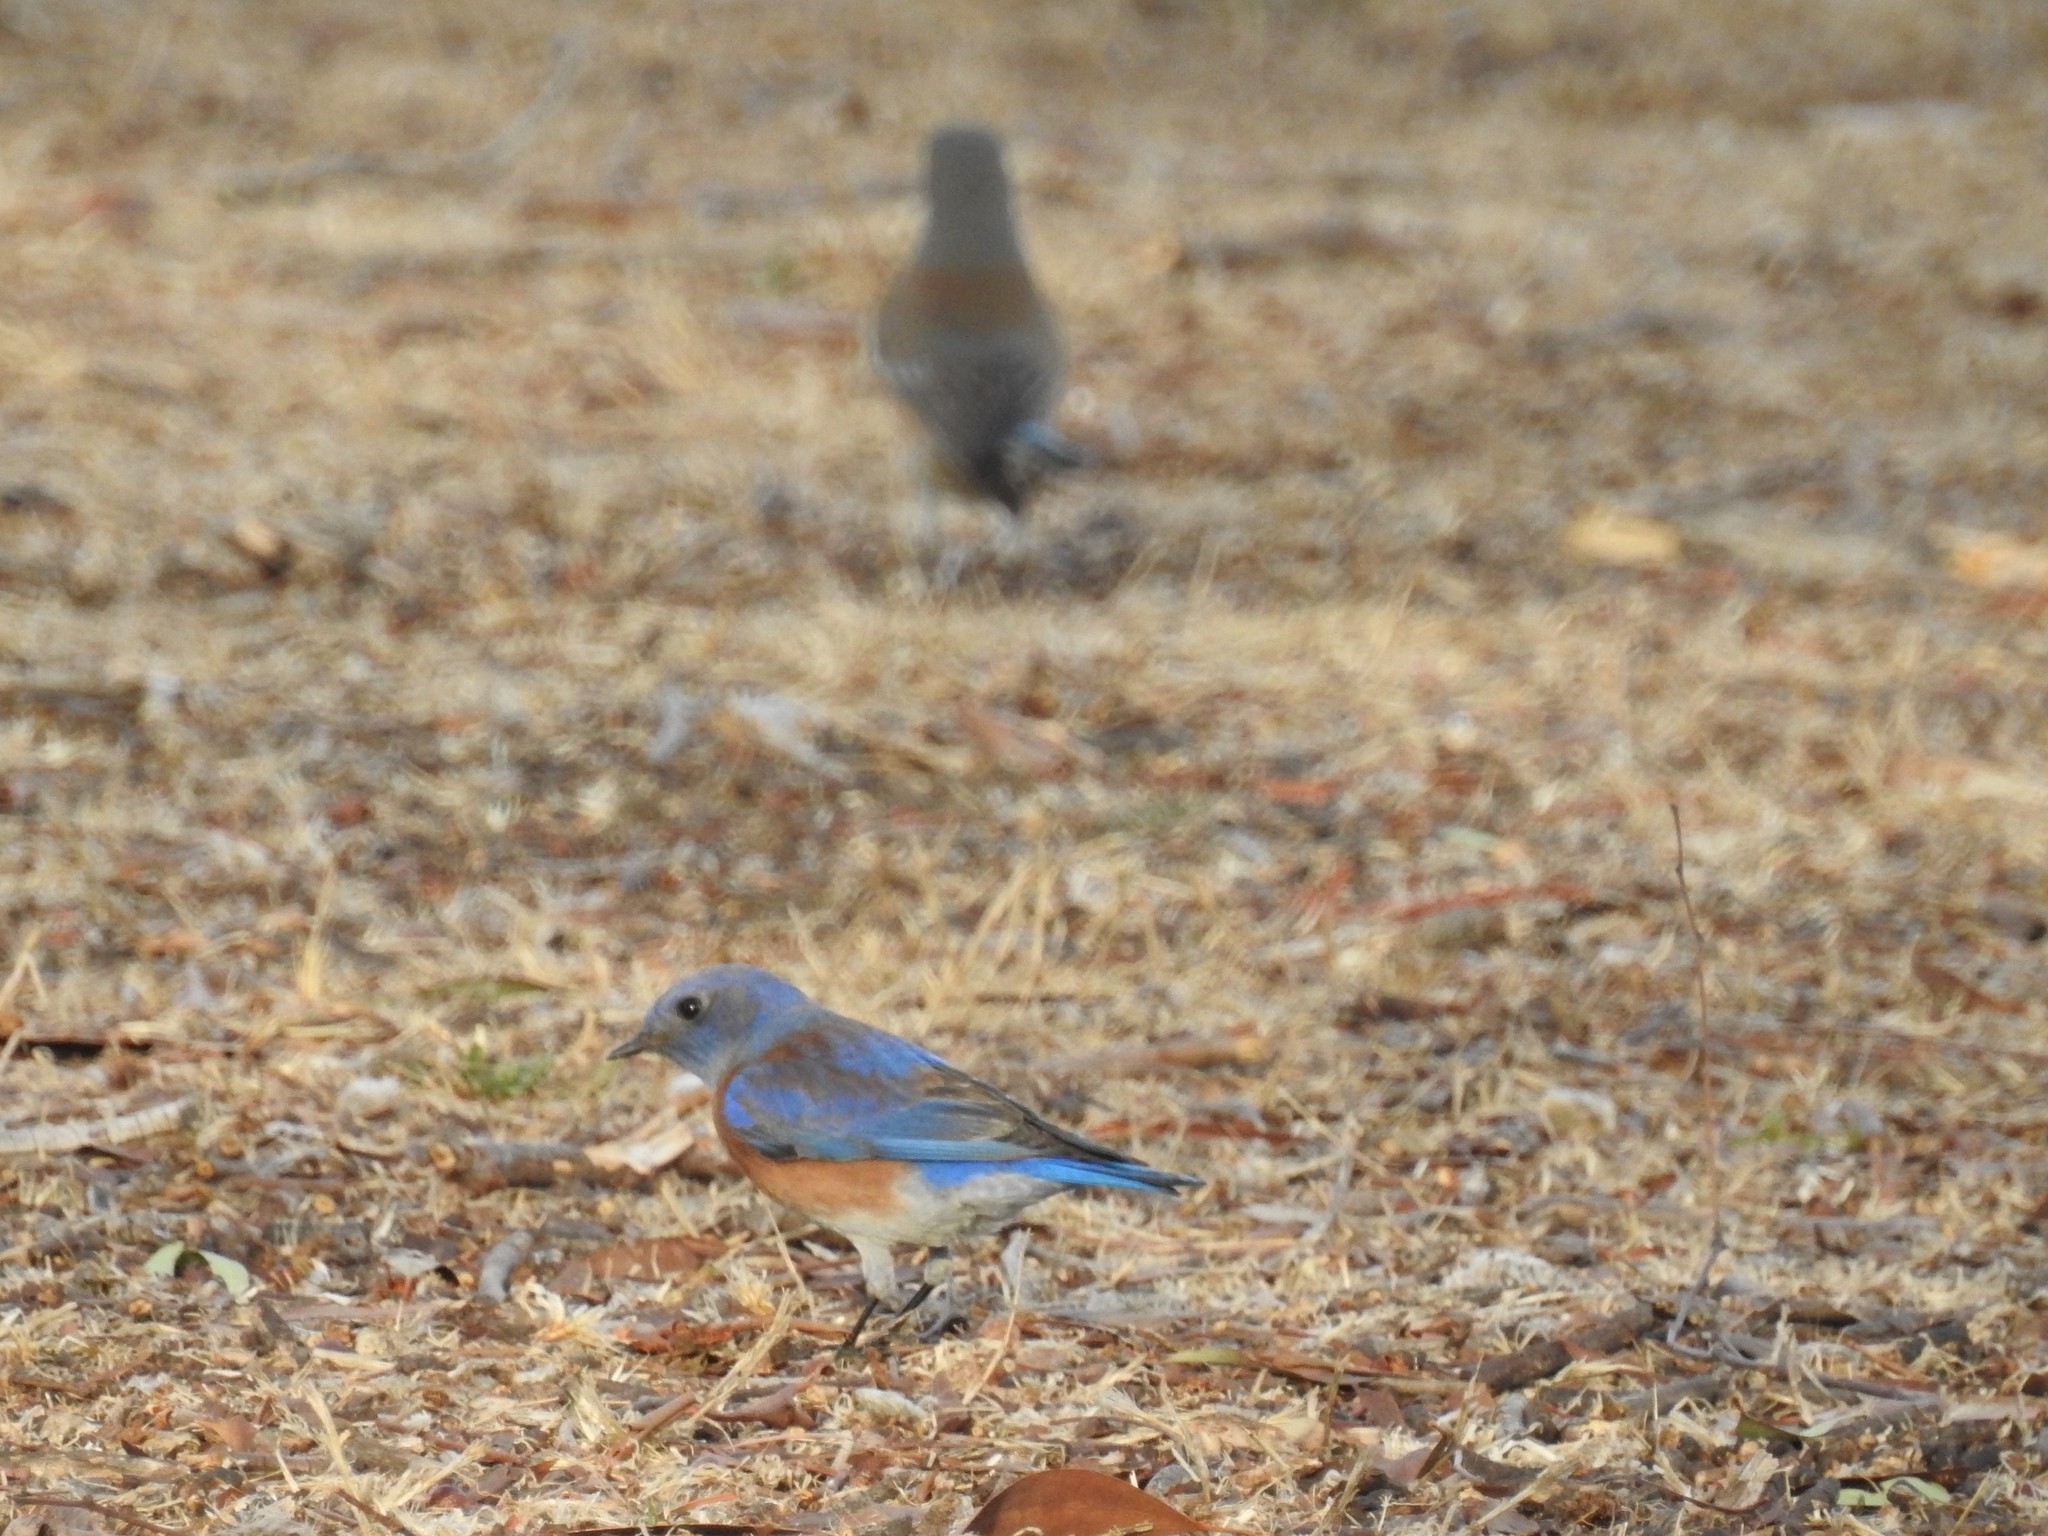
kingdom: Animalia
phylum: Chordata
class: Aves
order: Passeriformes
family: Turdidae
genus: Sialia
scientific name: Sialia mexicana
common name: Western bluebird
